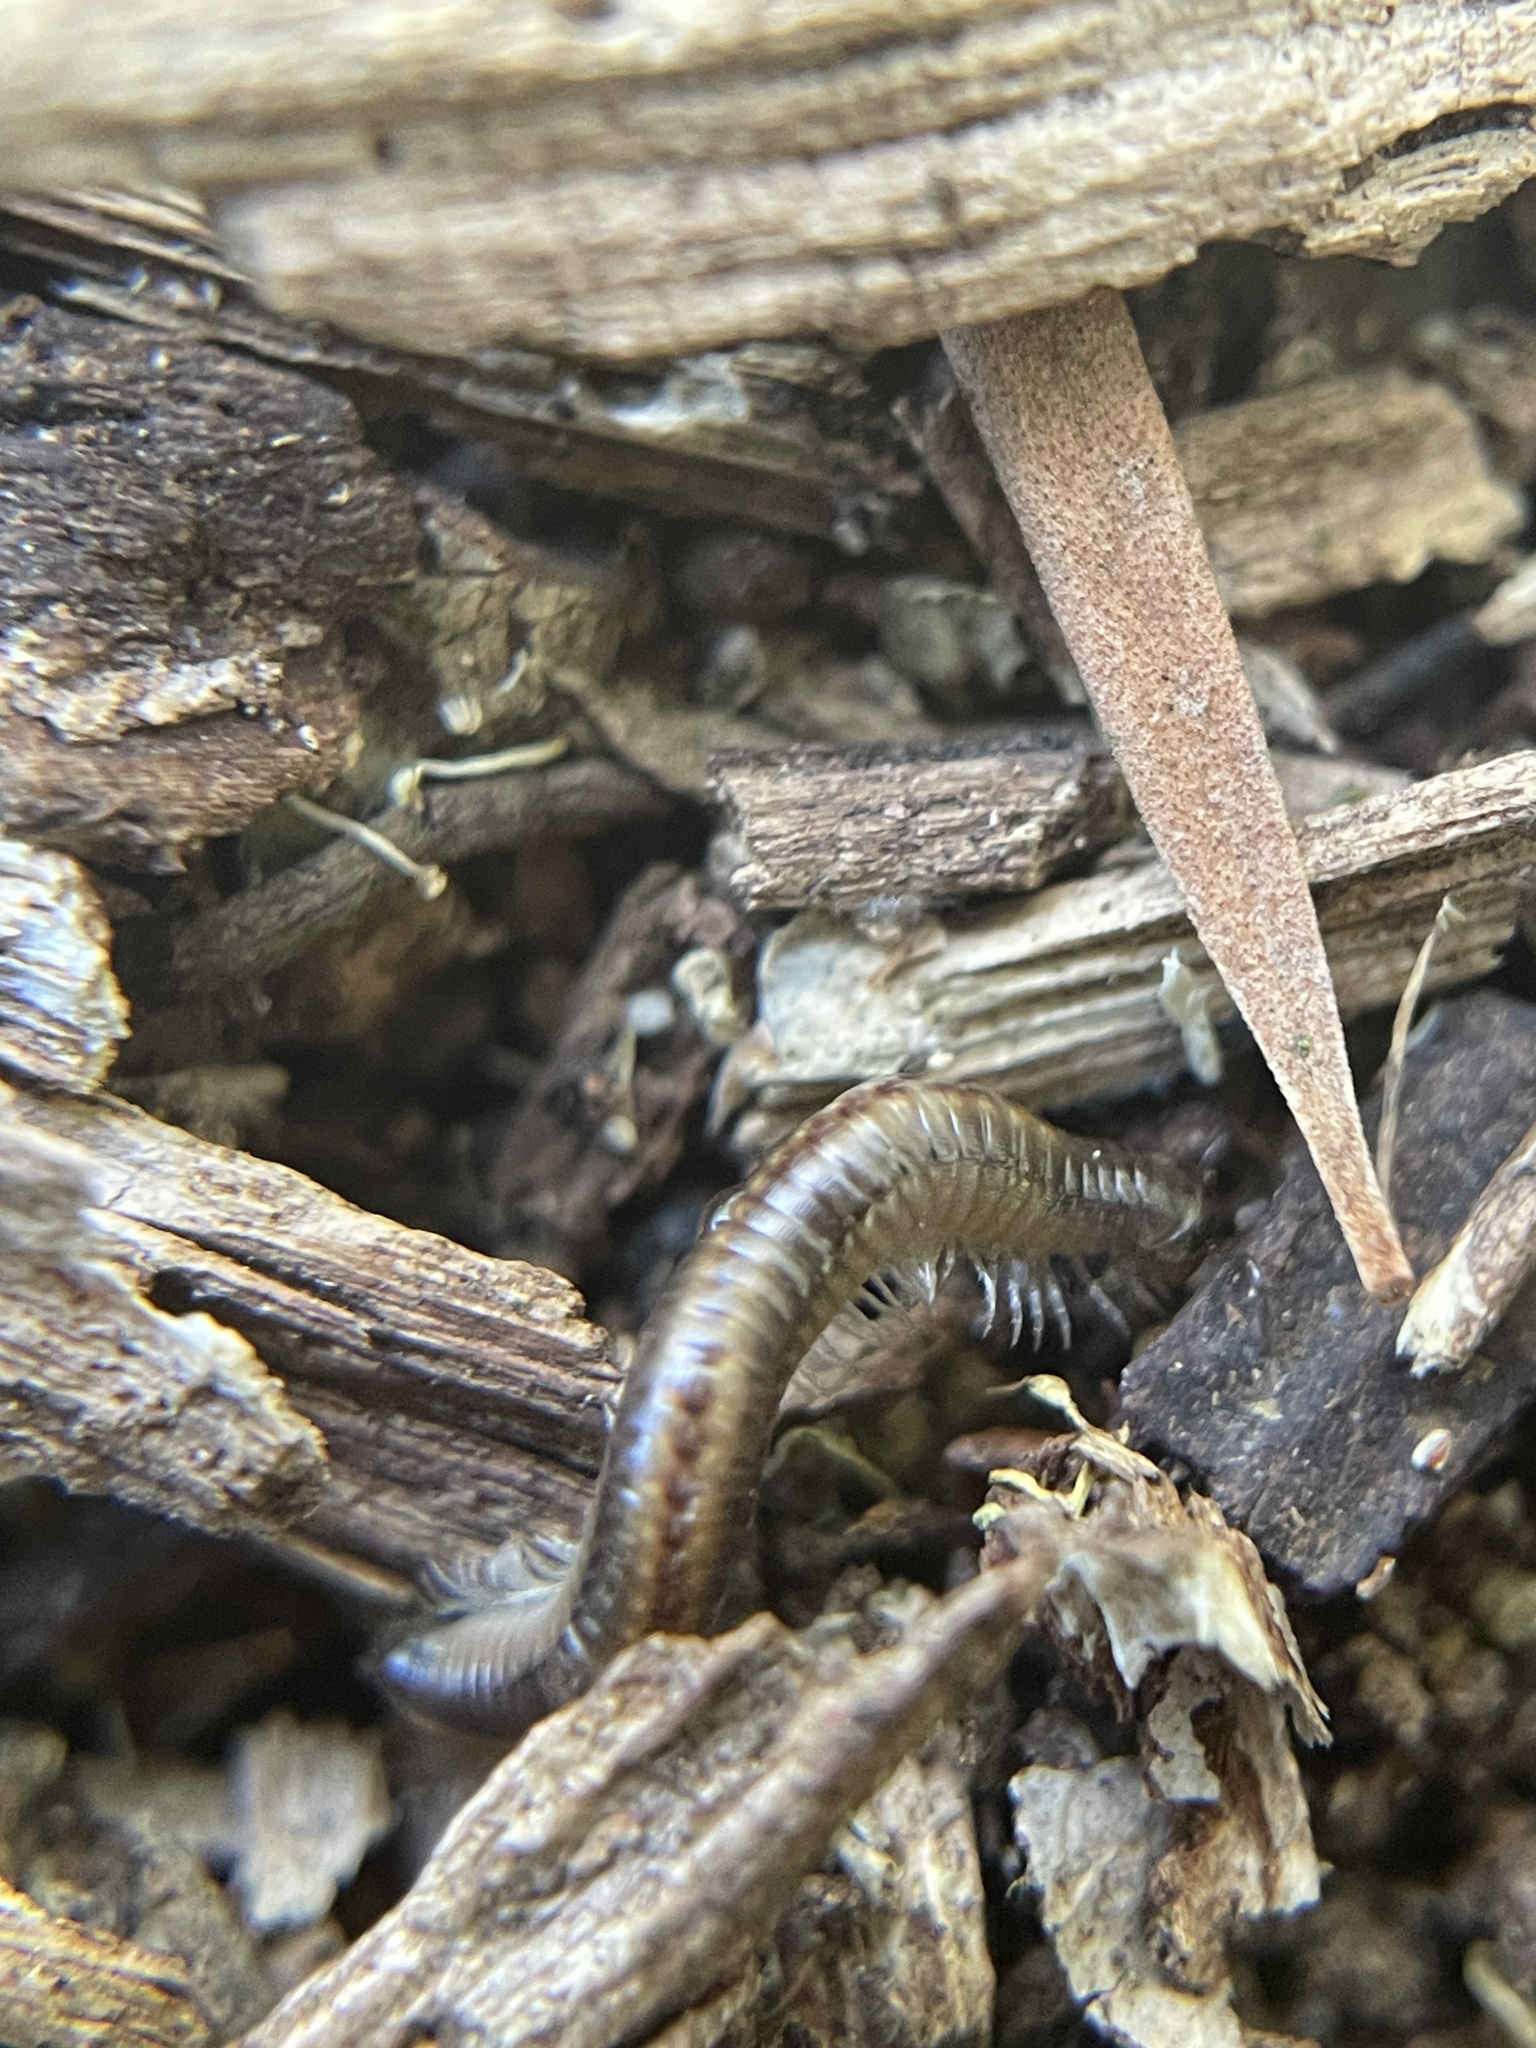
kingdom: Animalia
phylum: Arthropoda
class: Diplopoda
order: Julida
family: Julidae
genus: Ommatoiulus
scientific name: Ommatoiulus moreleti
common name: Portuguese millipede
